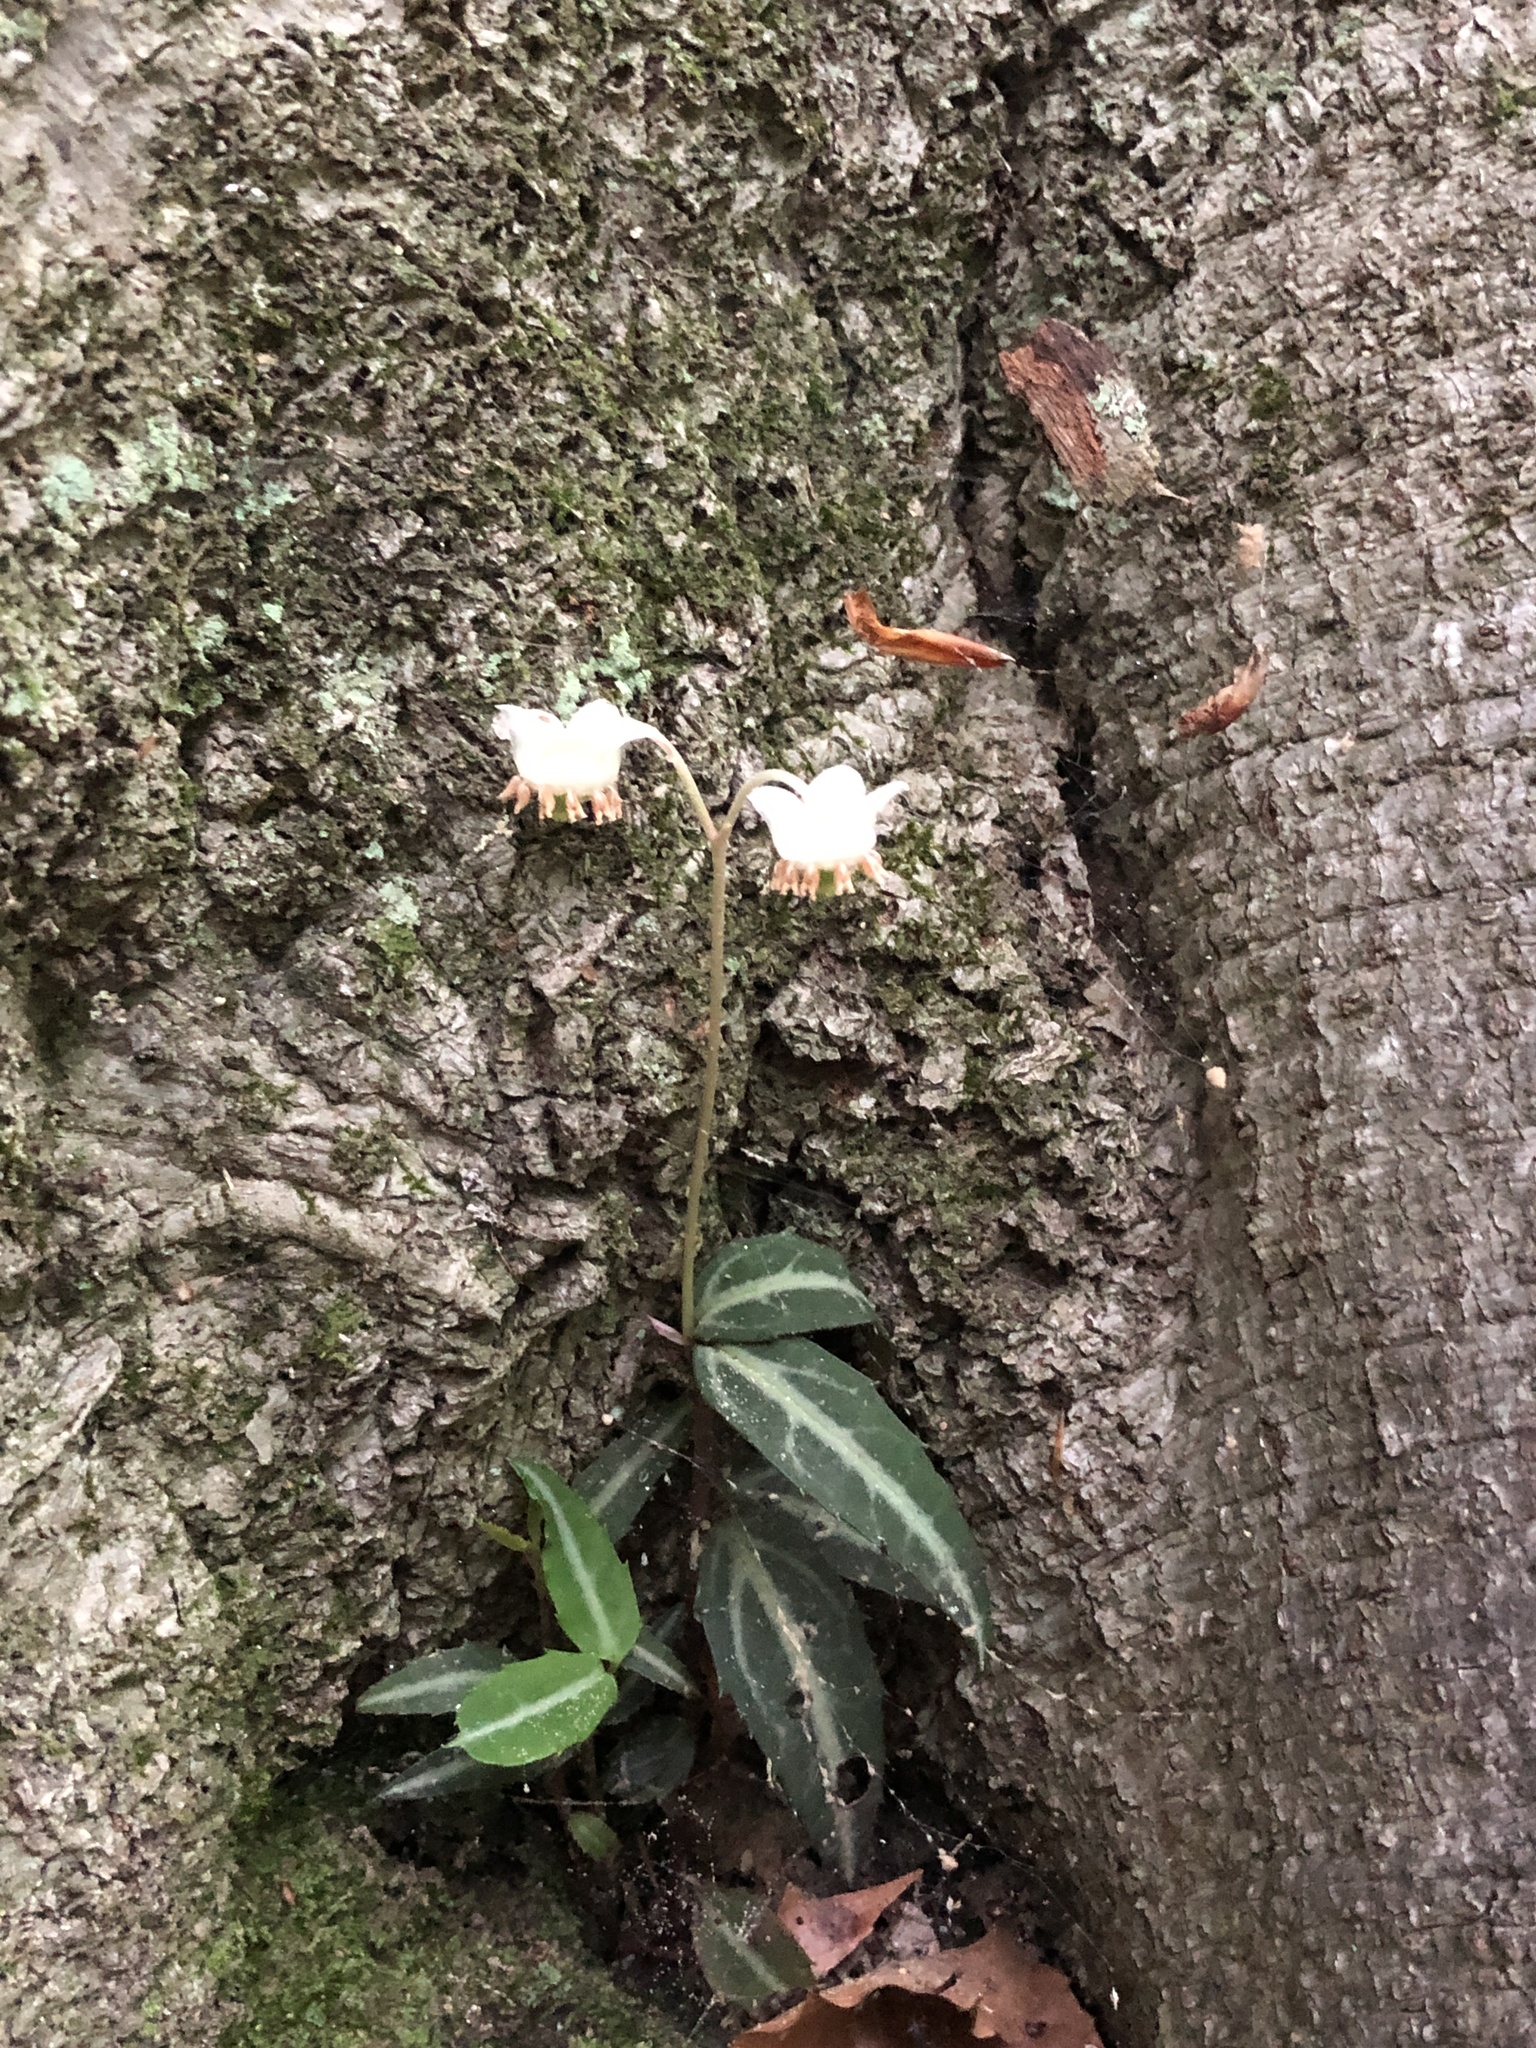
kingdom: Plantae
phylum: Tracheophyta
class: Magnoliopsida
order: Ericales
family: Ericaceae
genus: Chimaphila
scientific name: Chimaphila maculata
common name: Spotted pipsissewa
